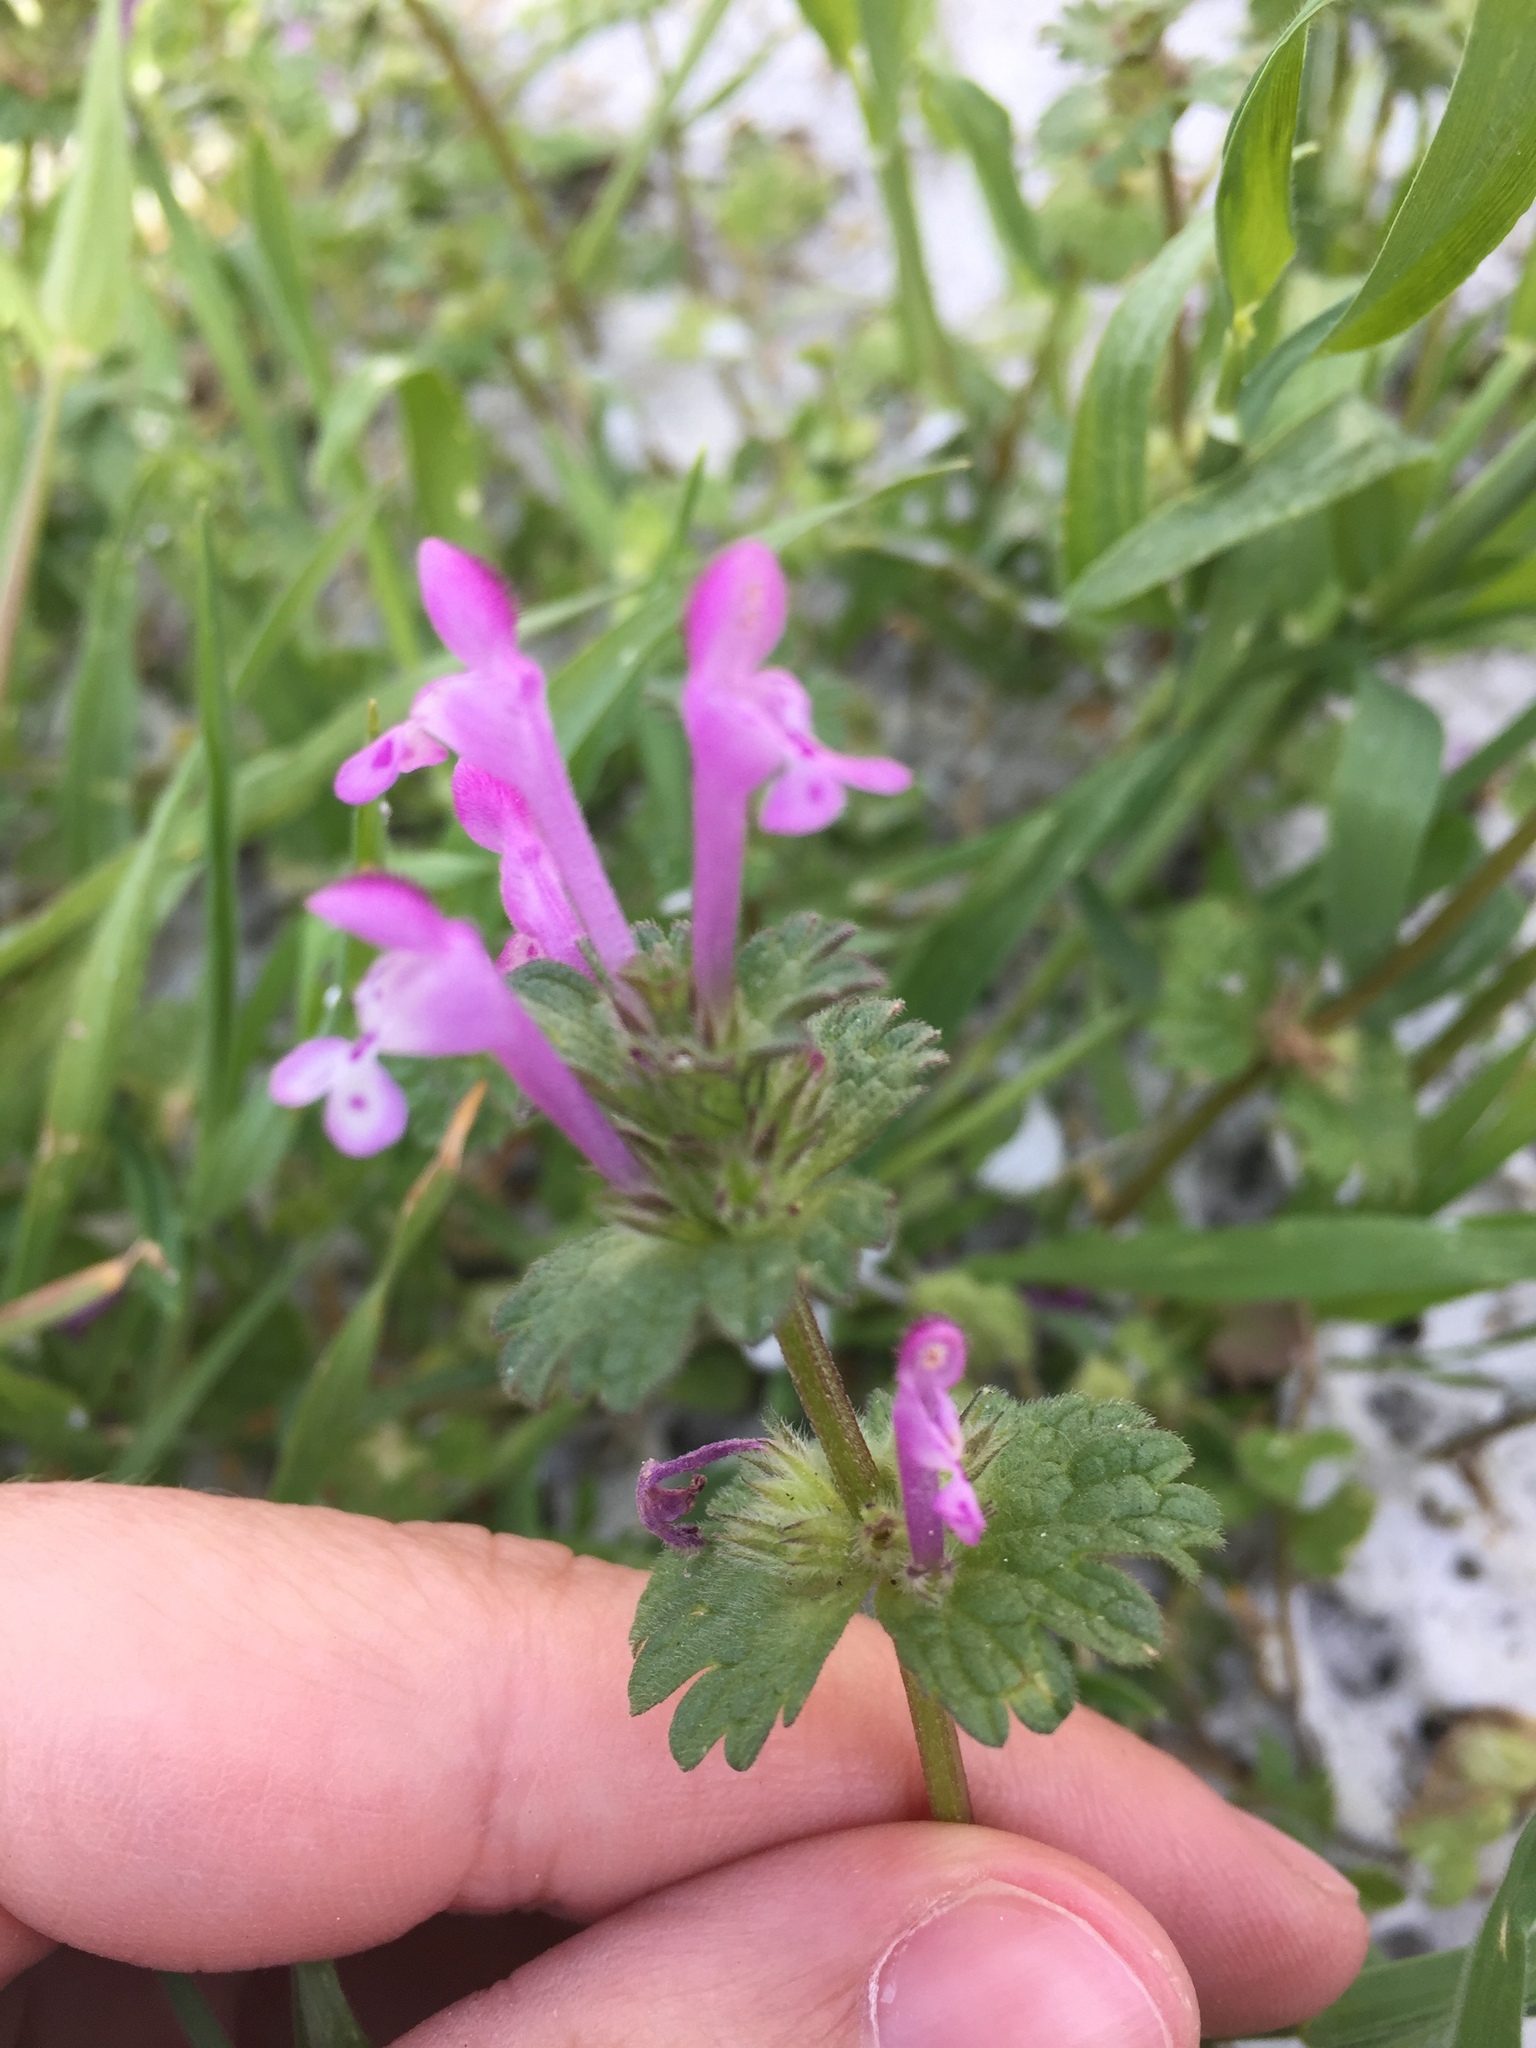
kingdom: Plantae
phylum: Tracheophyta
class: Magnoliopsida
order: Lamiales
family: Lamiaceae
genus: Lamium
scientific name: Lamium amplexicaule
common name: Henbit dead-nettle
